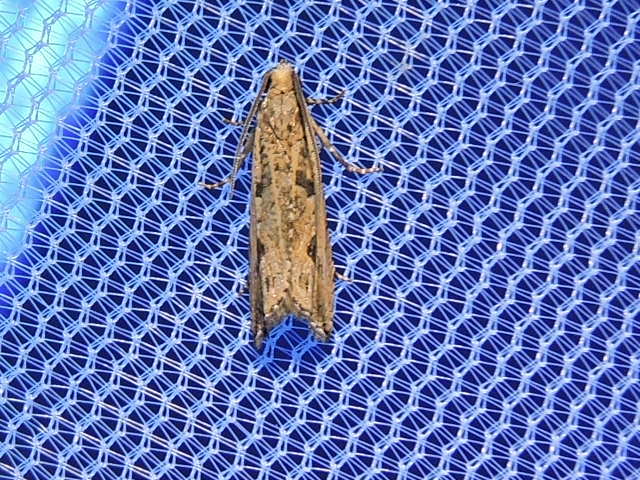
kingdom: Animalia
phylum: Arthropoda
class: Insecta
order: Lepidoptera
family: Tortricidae
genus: Bactra
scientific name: Bactra verutana
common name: Javelin moth
